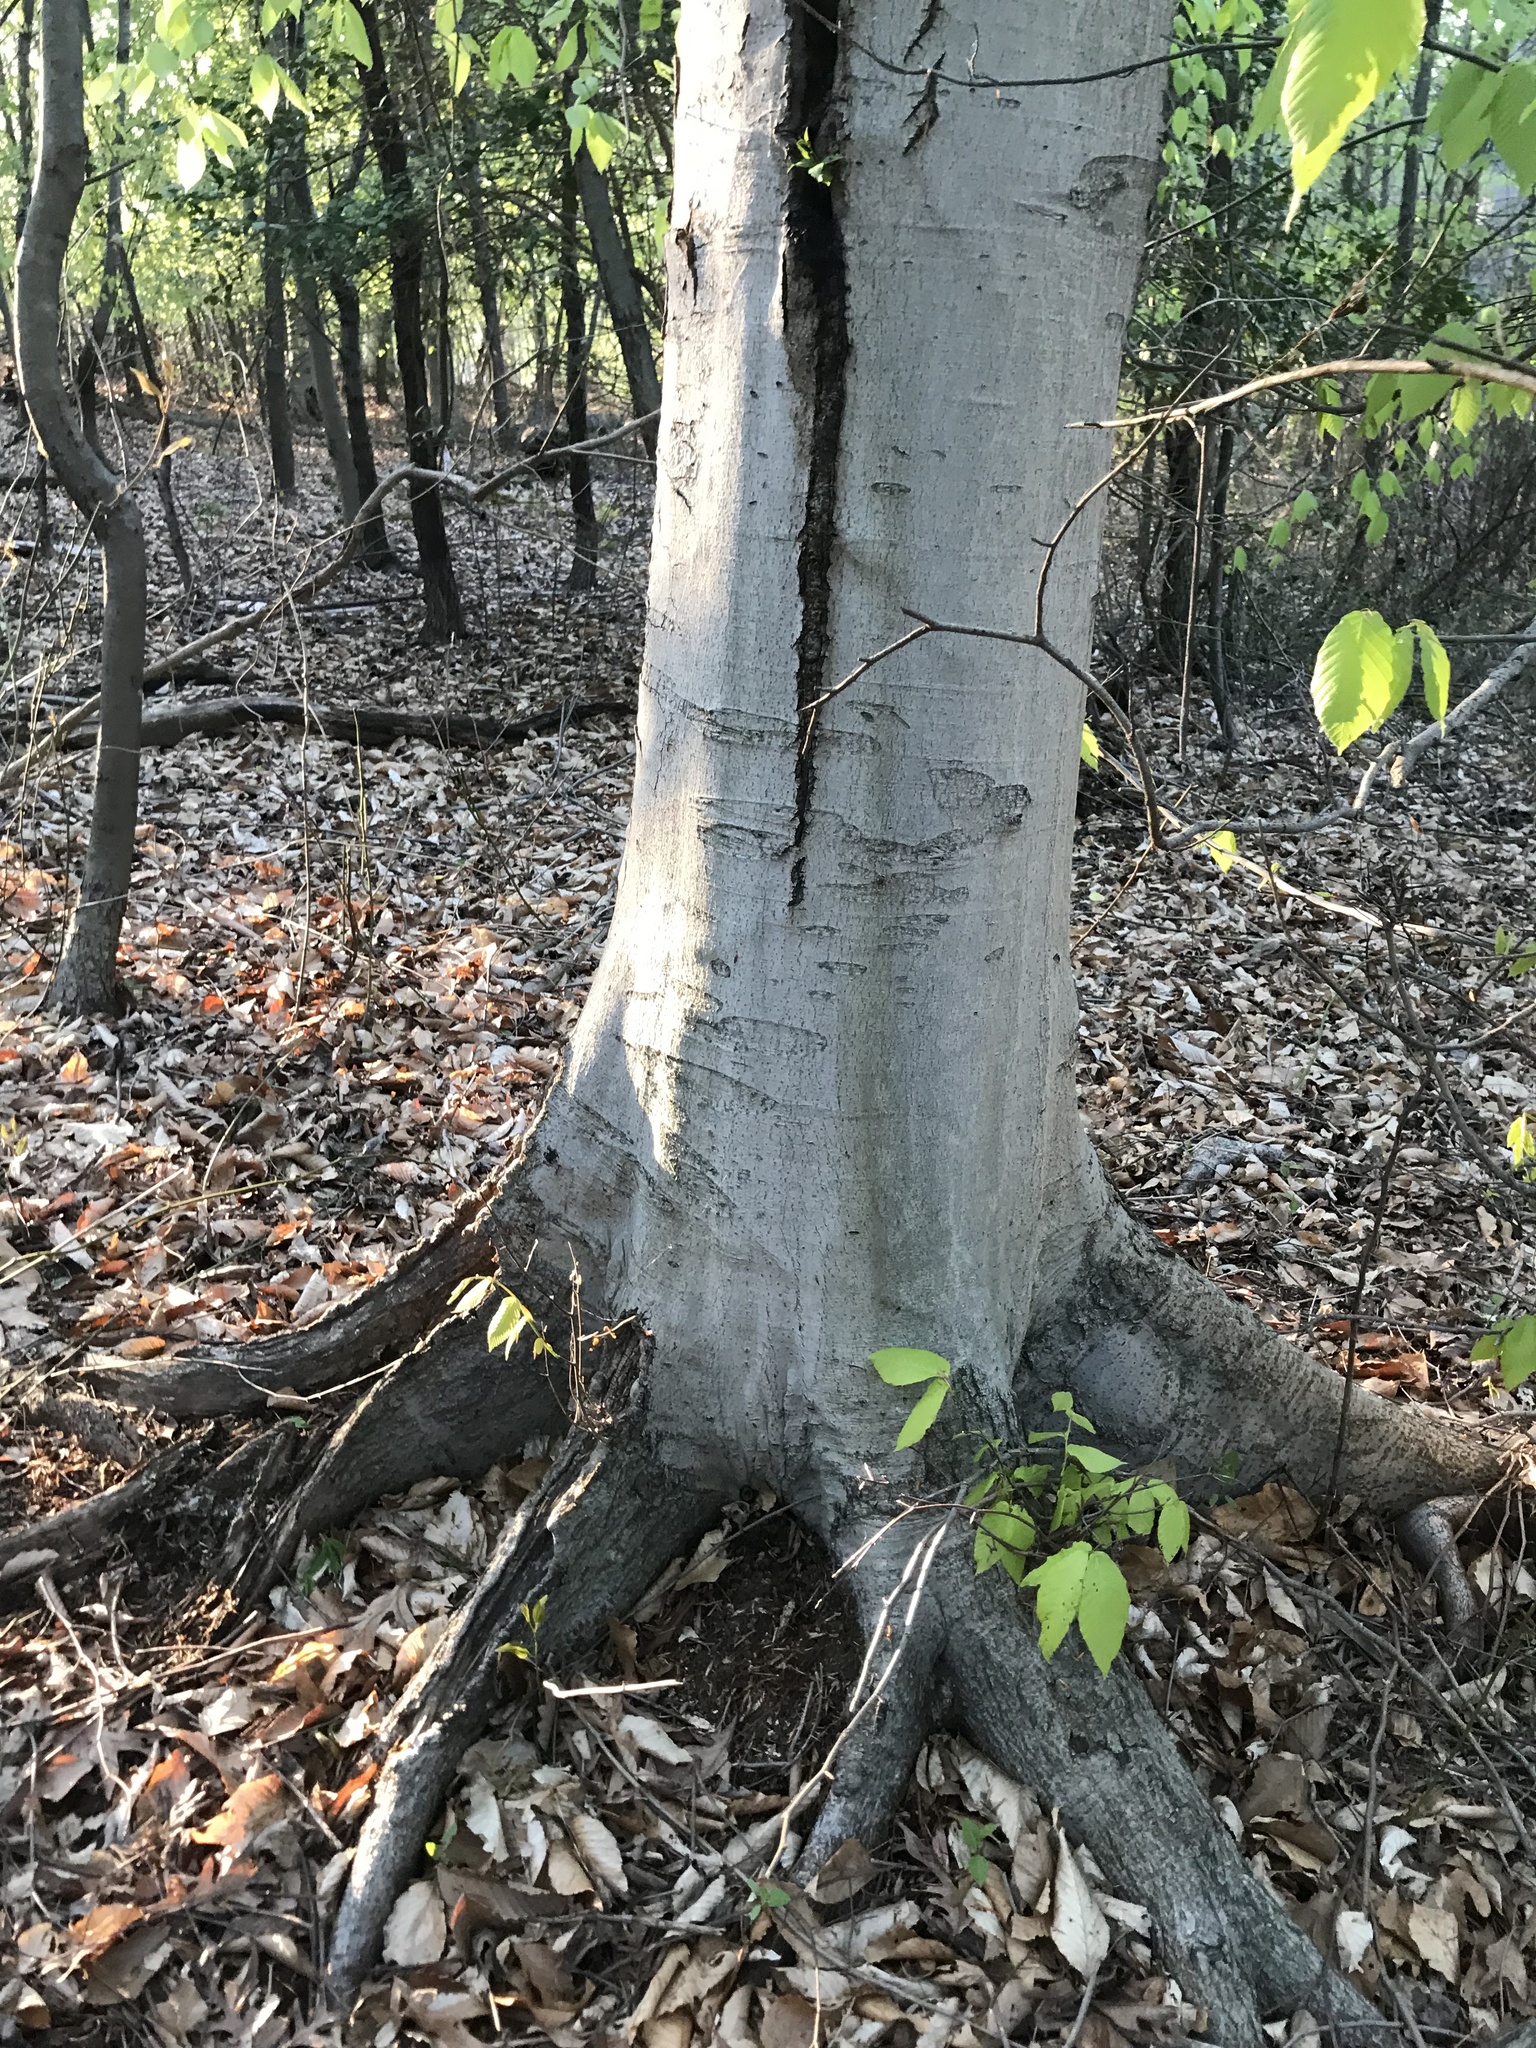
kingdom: Plantae
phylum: Tracheophyta
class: Magnoliopsida
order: Fagales
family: Fagaceae
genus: Fagus
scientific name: Fagus grandifolia
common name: American beech
